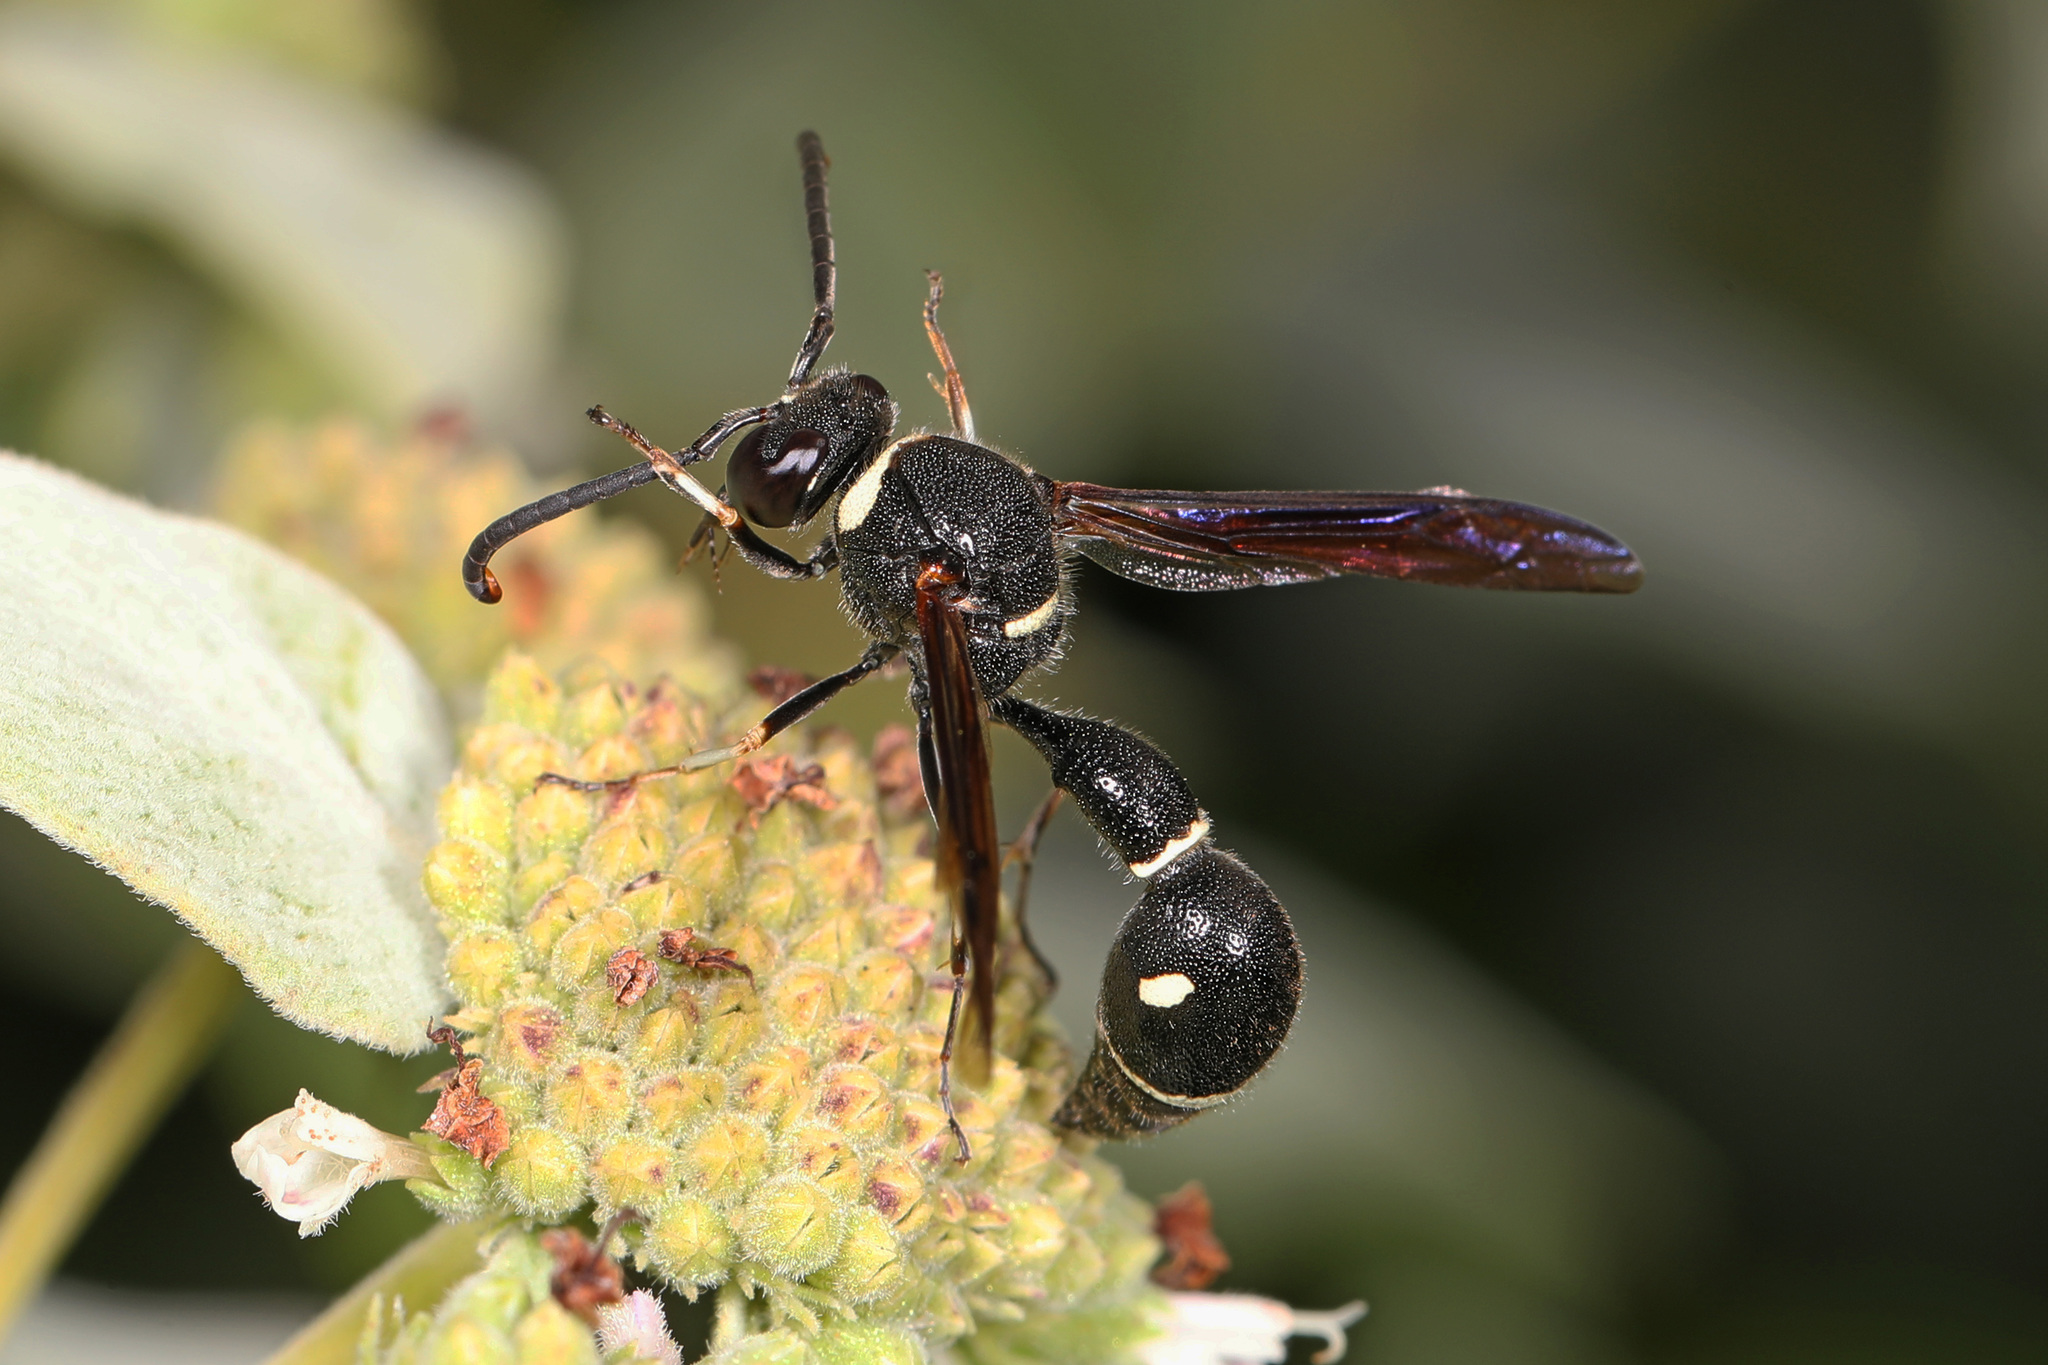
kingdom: Animalia
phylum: Arthropoda
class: Insecta
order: Hymenoptera
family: Vespidae
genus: Eumenes
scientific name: Eumenes fraternus
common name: Fraternal potter wasp
